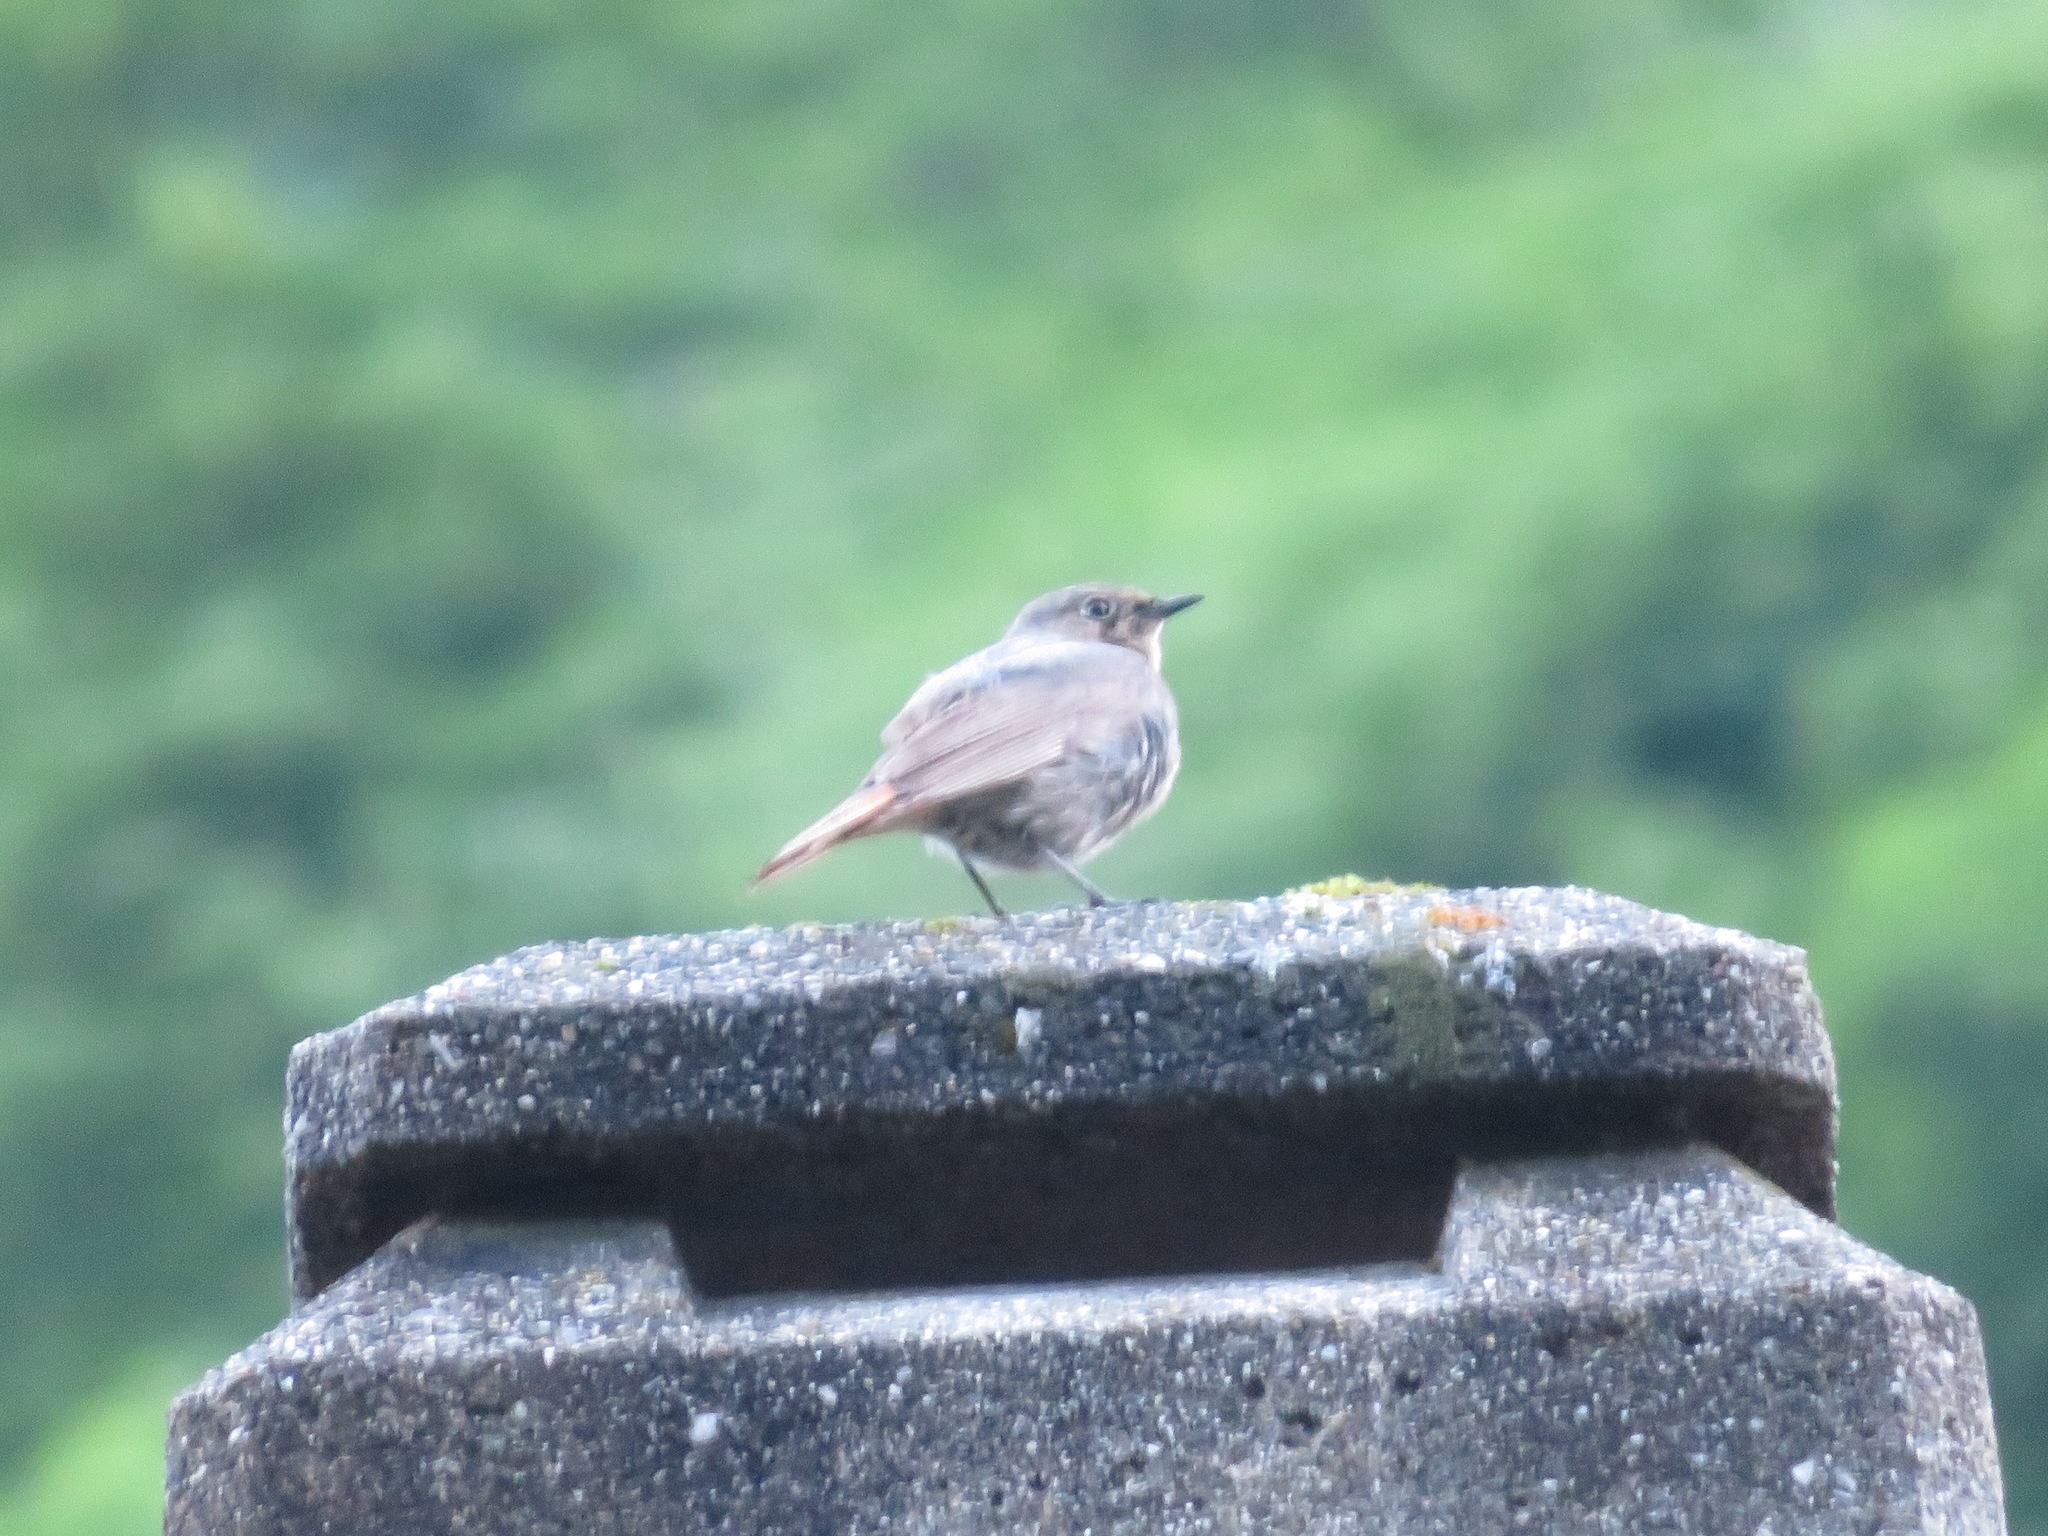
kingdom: Animalia
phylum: Chordata
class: Aves
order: Passeriformes
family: Muscicapidae
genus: Phoenicurus
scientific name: Phoenicurus ochruros
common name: Black redstart
